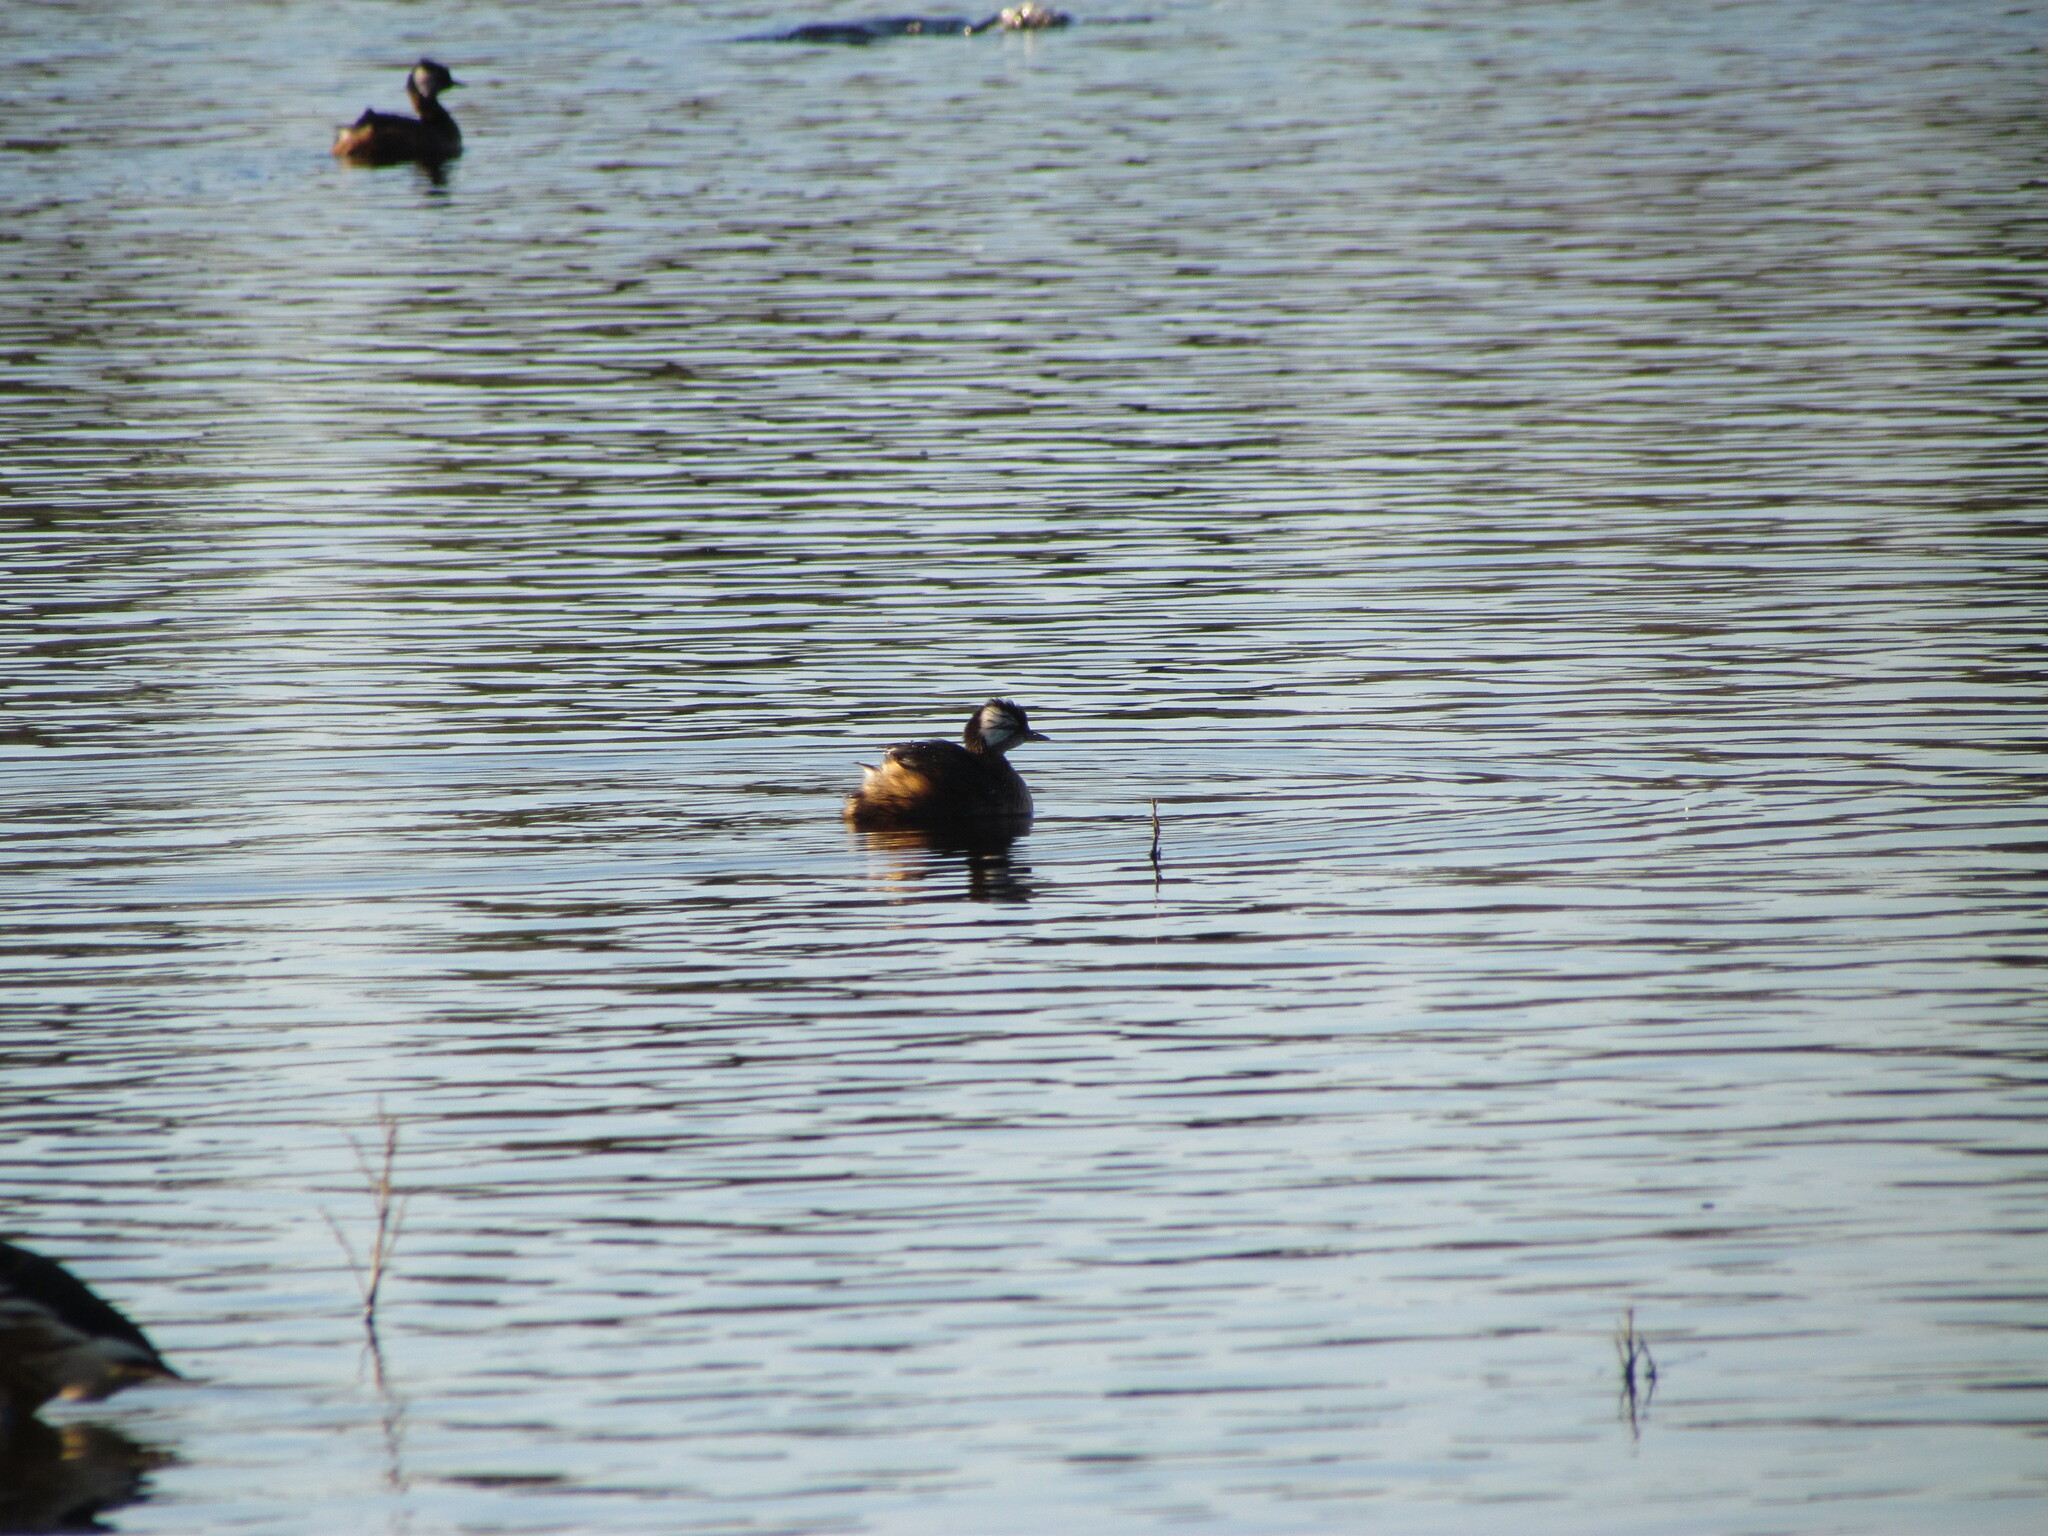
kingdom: Animalia
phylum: Chordata
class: Aves
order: Podicipediformes
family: Podicipedidae
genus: Rollandia
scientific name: Rollandia rolland
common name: White-tufted grebe
